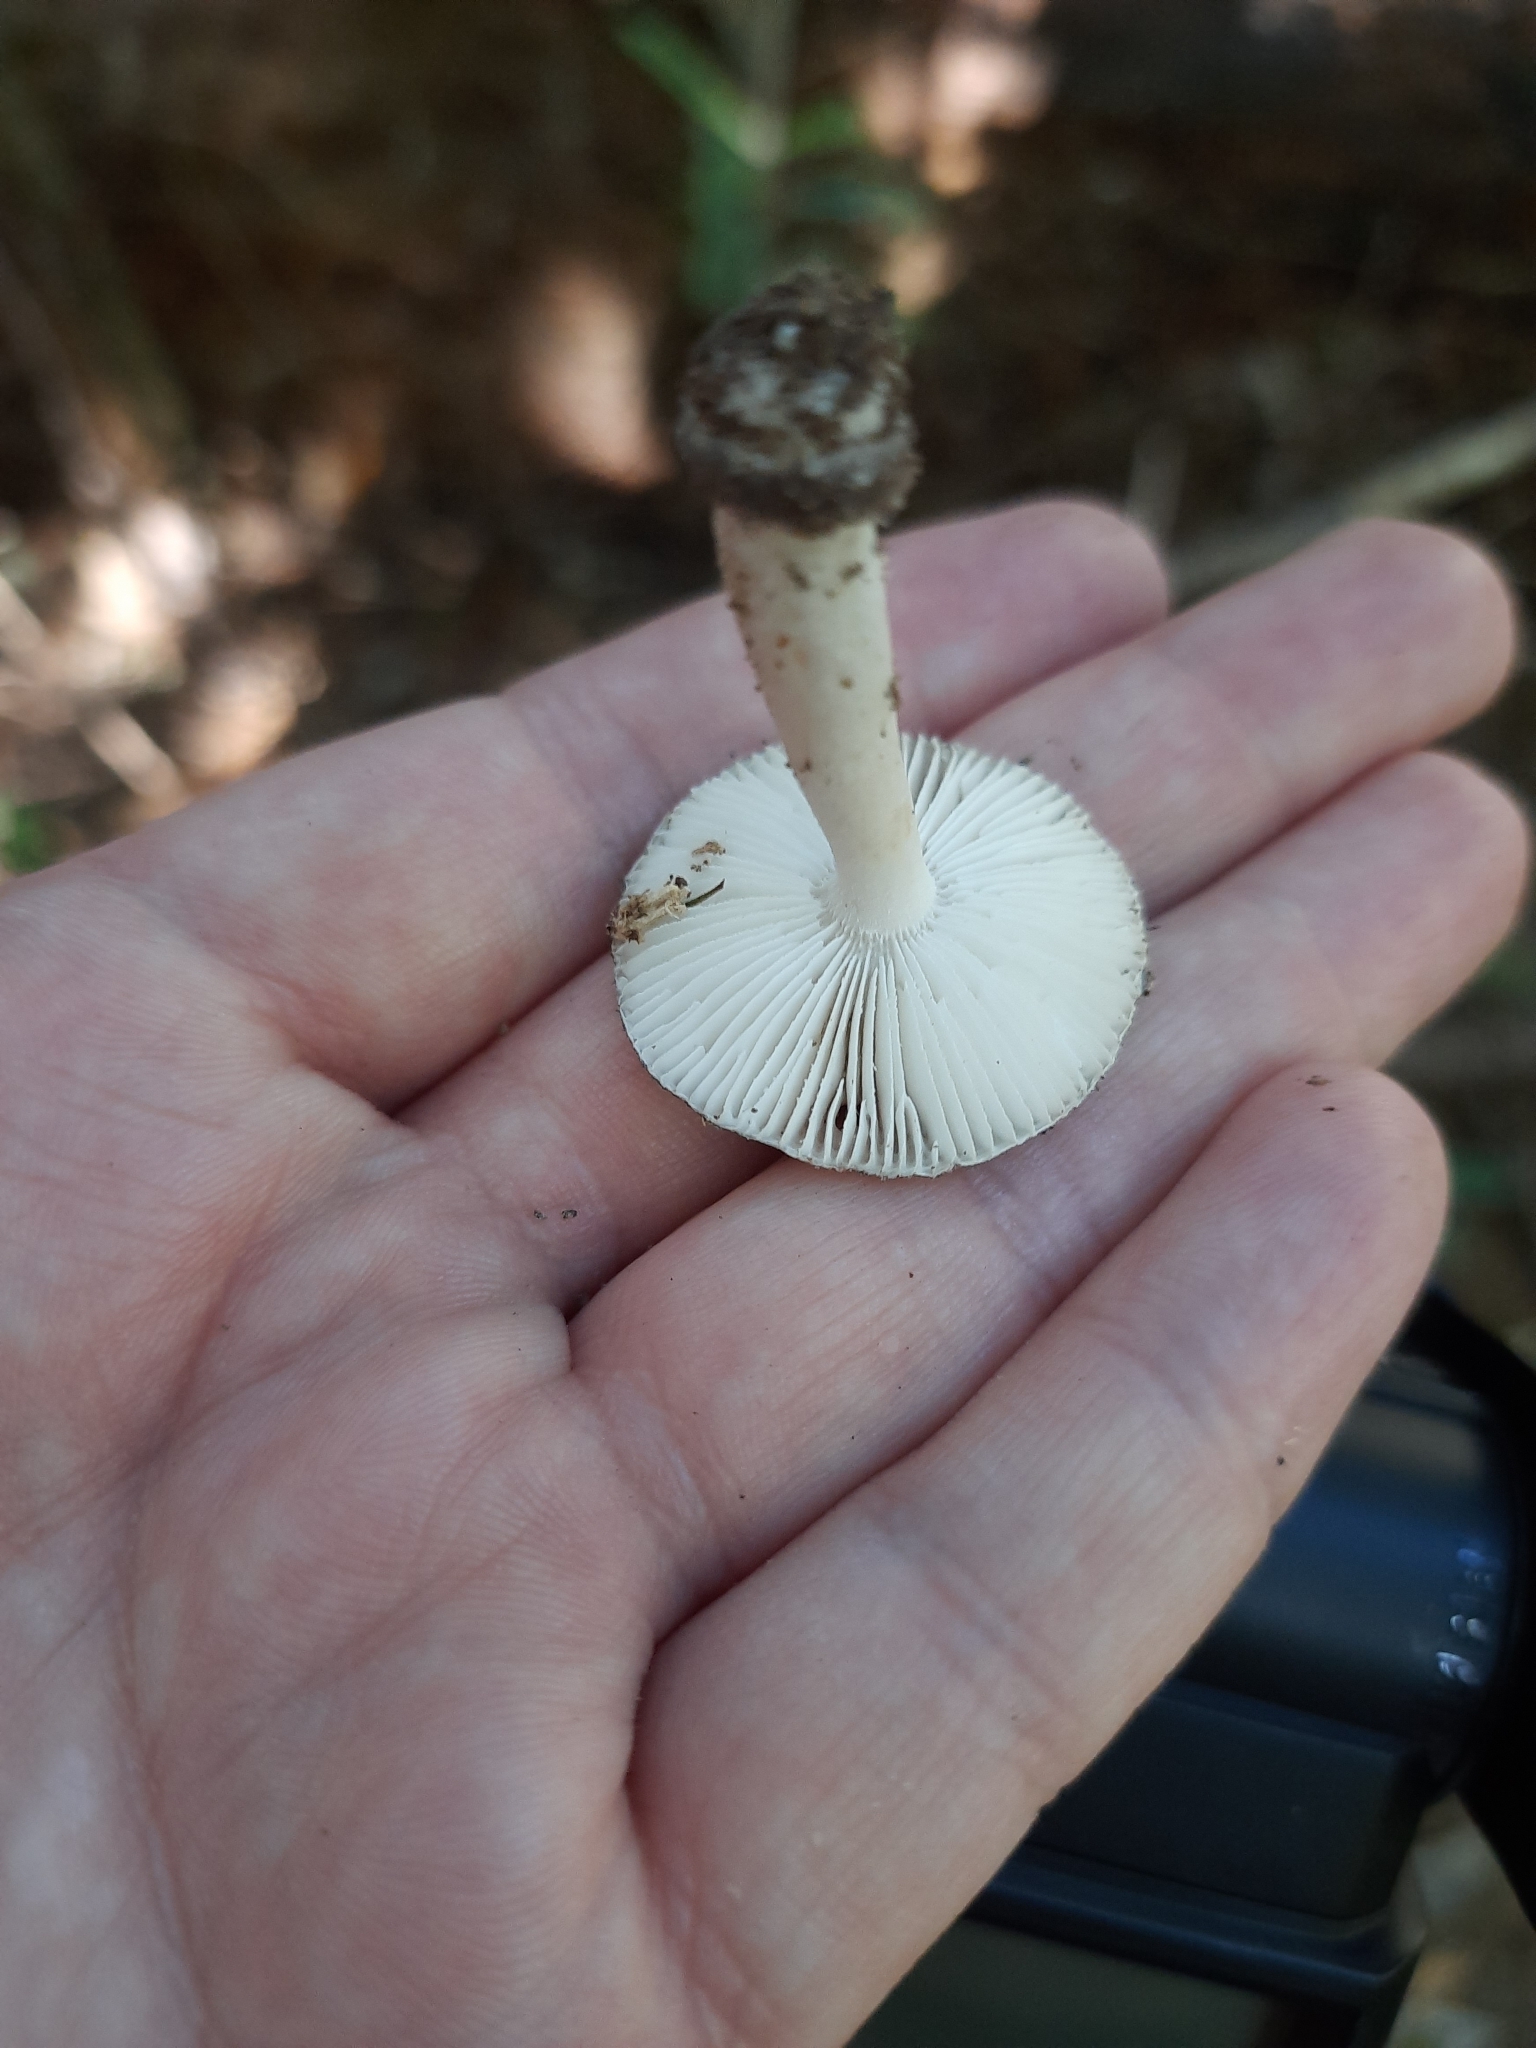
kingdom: Fungi
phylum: Basidiomycota
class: Agaricomycetes
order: Agaricales
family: Amanitaceae
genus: Amanita
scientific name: Amanita nehuta
